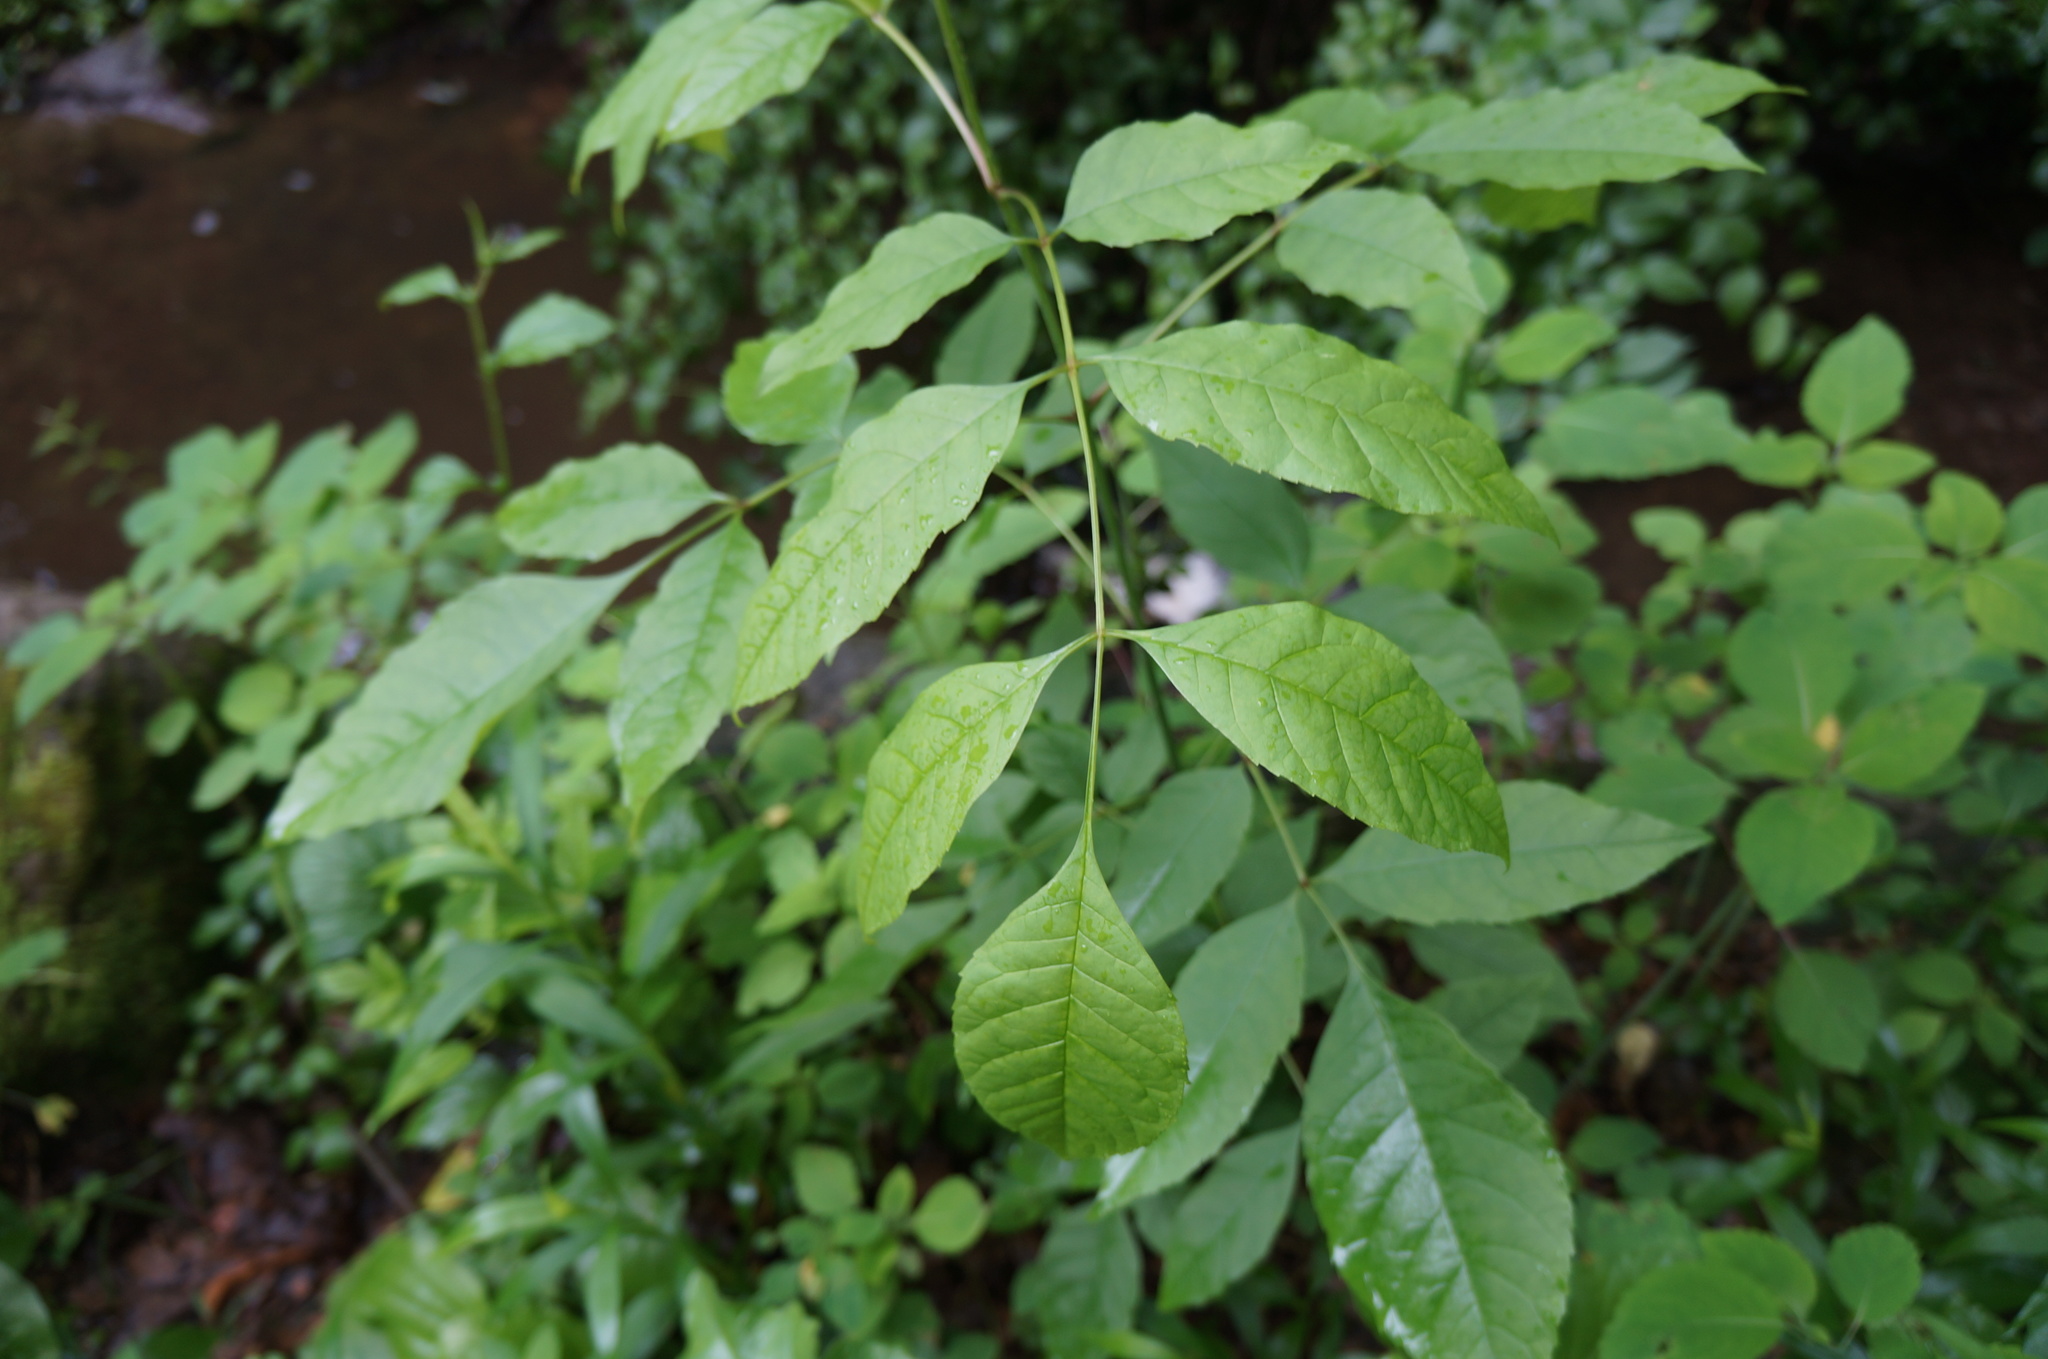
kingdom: Plantae
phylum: Tracheophyta
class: Magnoliopsida
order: Lamiales
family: Oleaceae
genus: Fraxinus
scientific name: Fraxinus pennsylvanica
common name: Green ash
